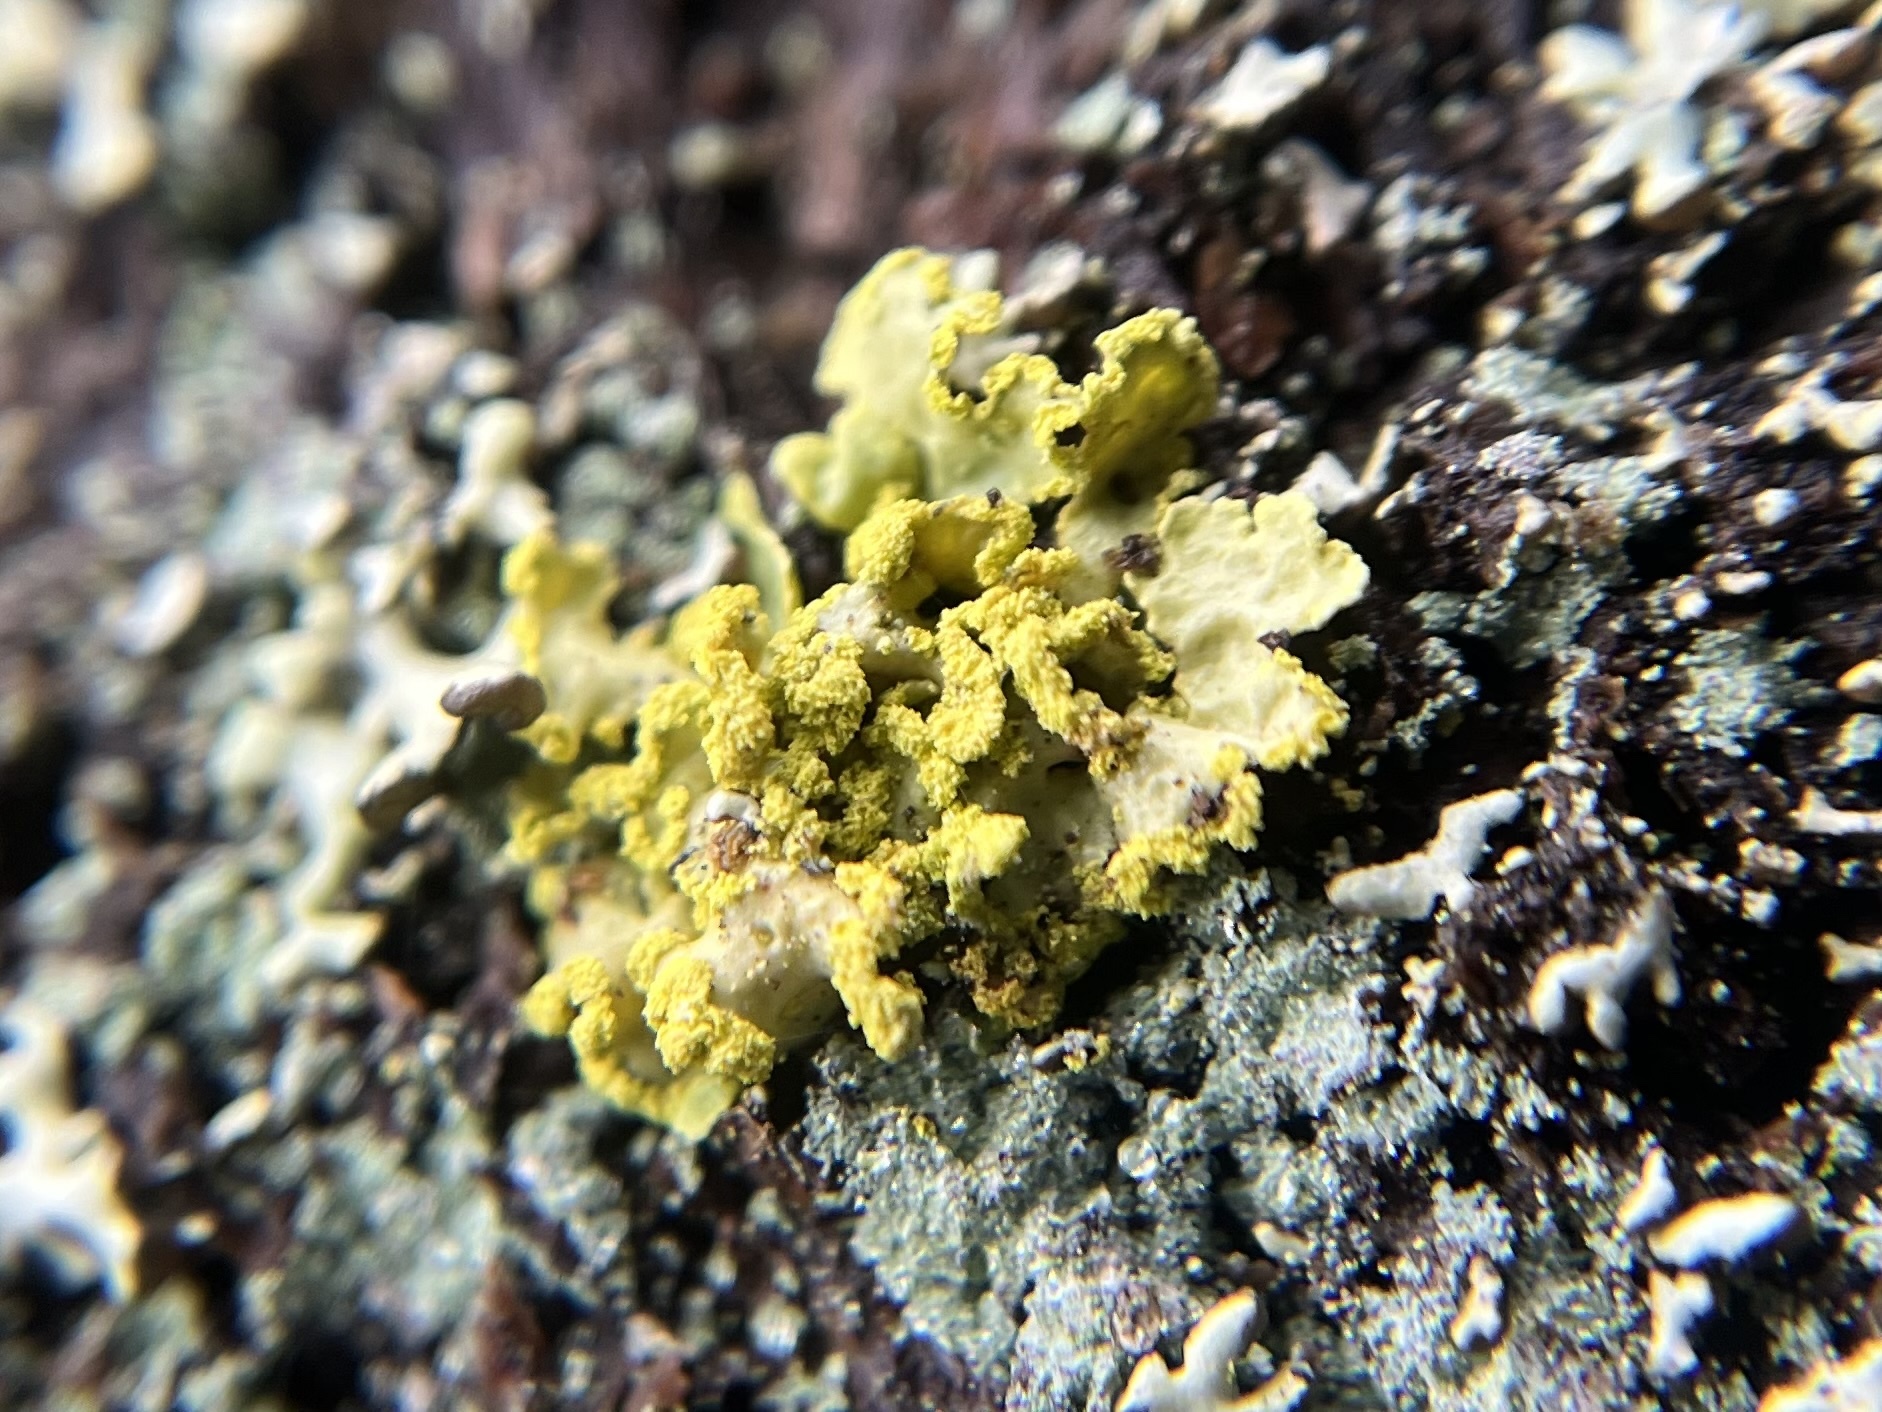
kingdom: Fungi
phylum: Ascomycota
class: Lecanoromycetes
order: Lecanorales
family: Parmeliaceae
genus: Vulpicida
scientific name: Vulpicida pinastri
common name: Powdered sunshine lichen
